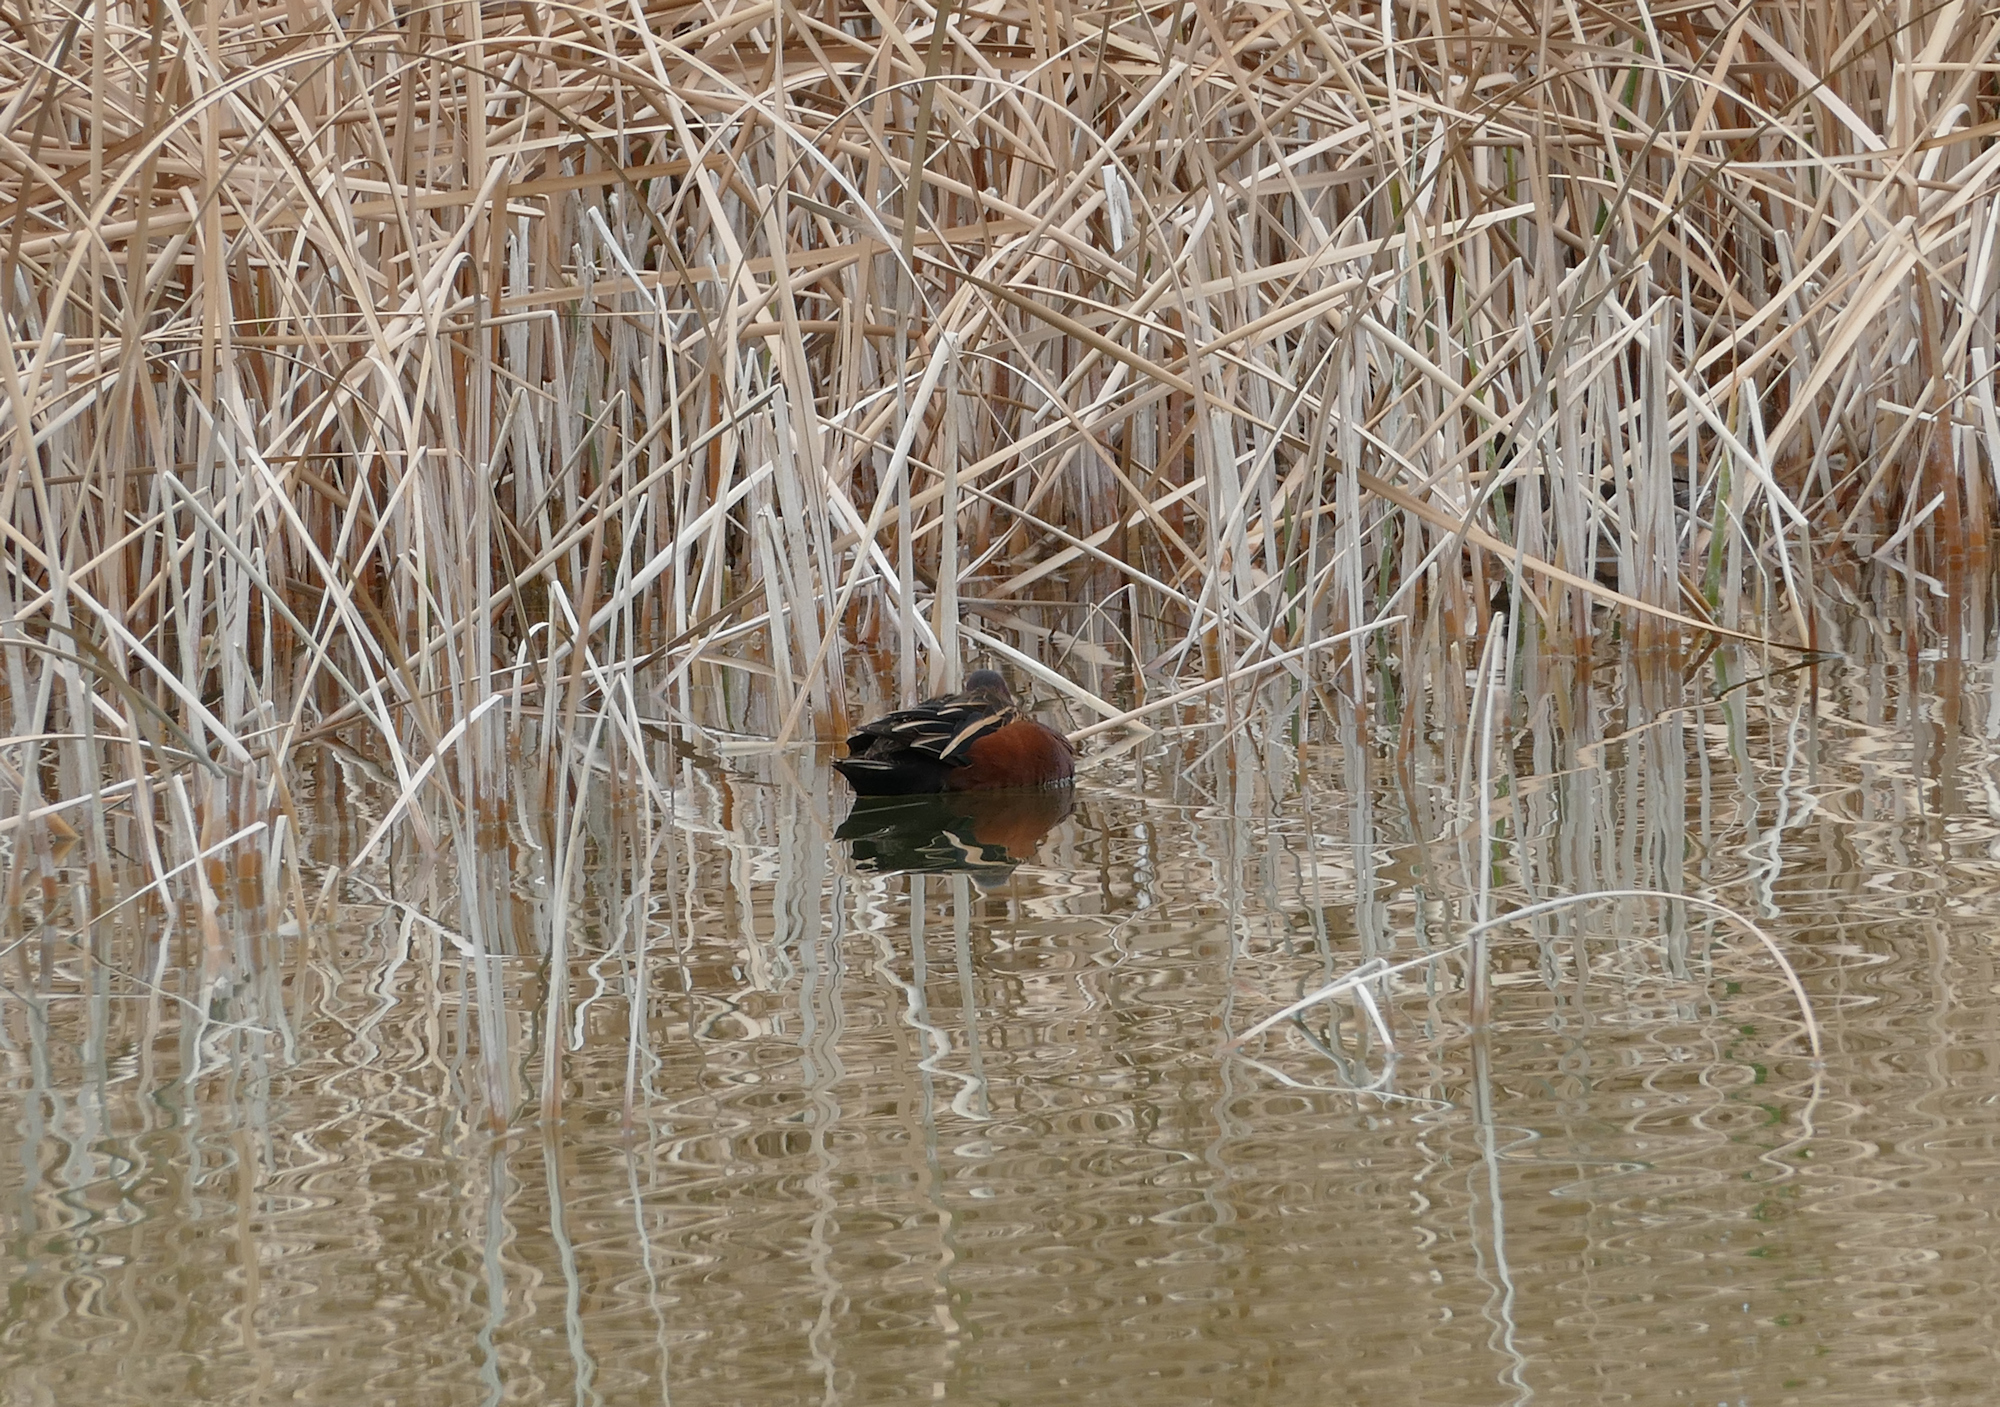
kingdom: Animalia
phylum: Chordata
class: Aves
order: Anseriformes
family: Anatidae
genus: Spatula
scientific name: Spatula cyanoptera
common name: Cinnamon teal
